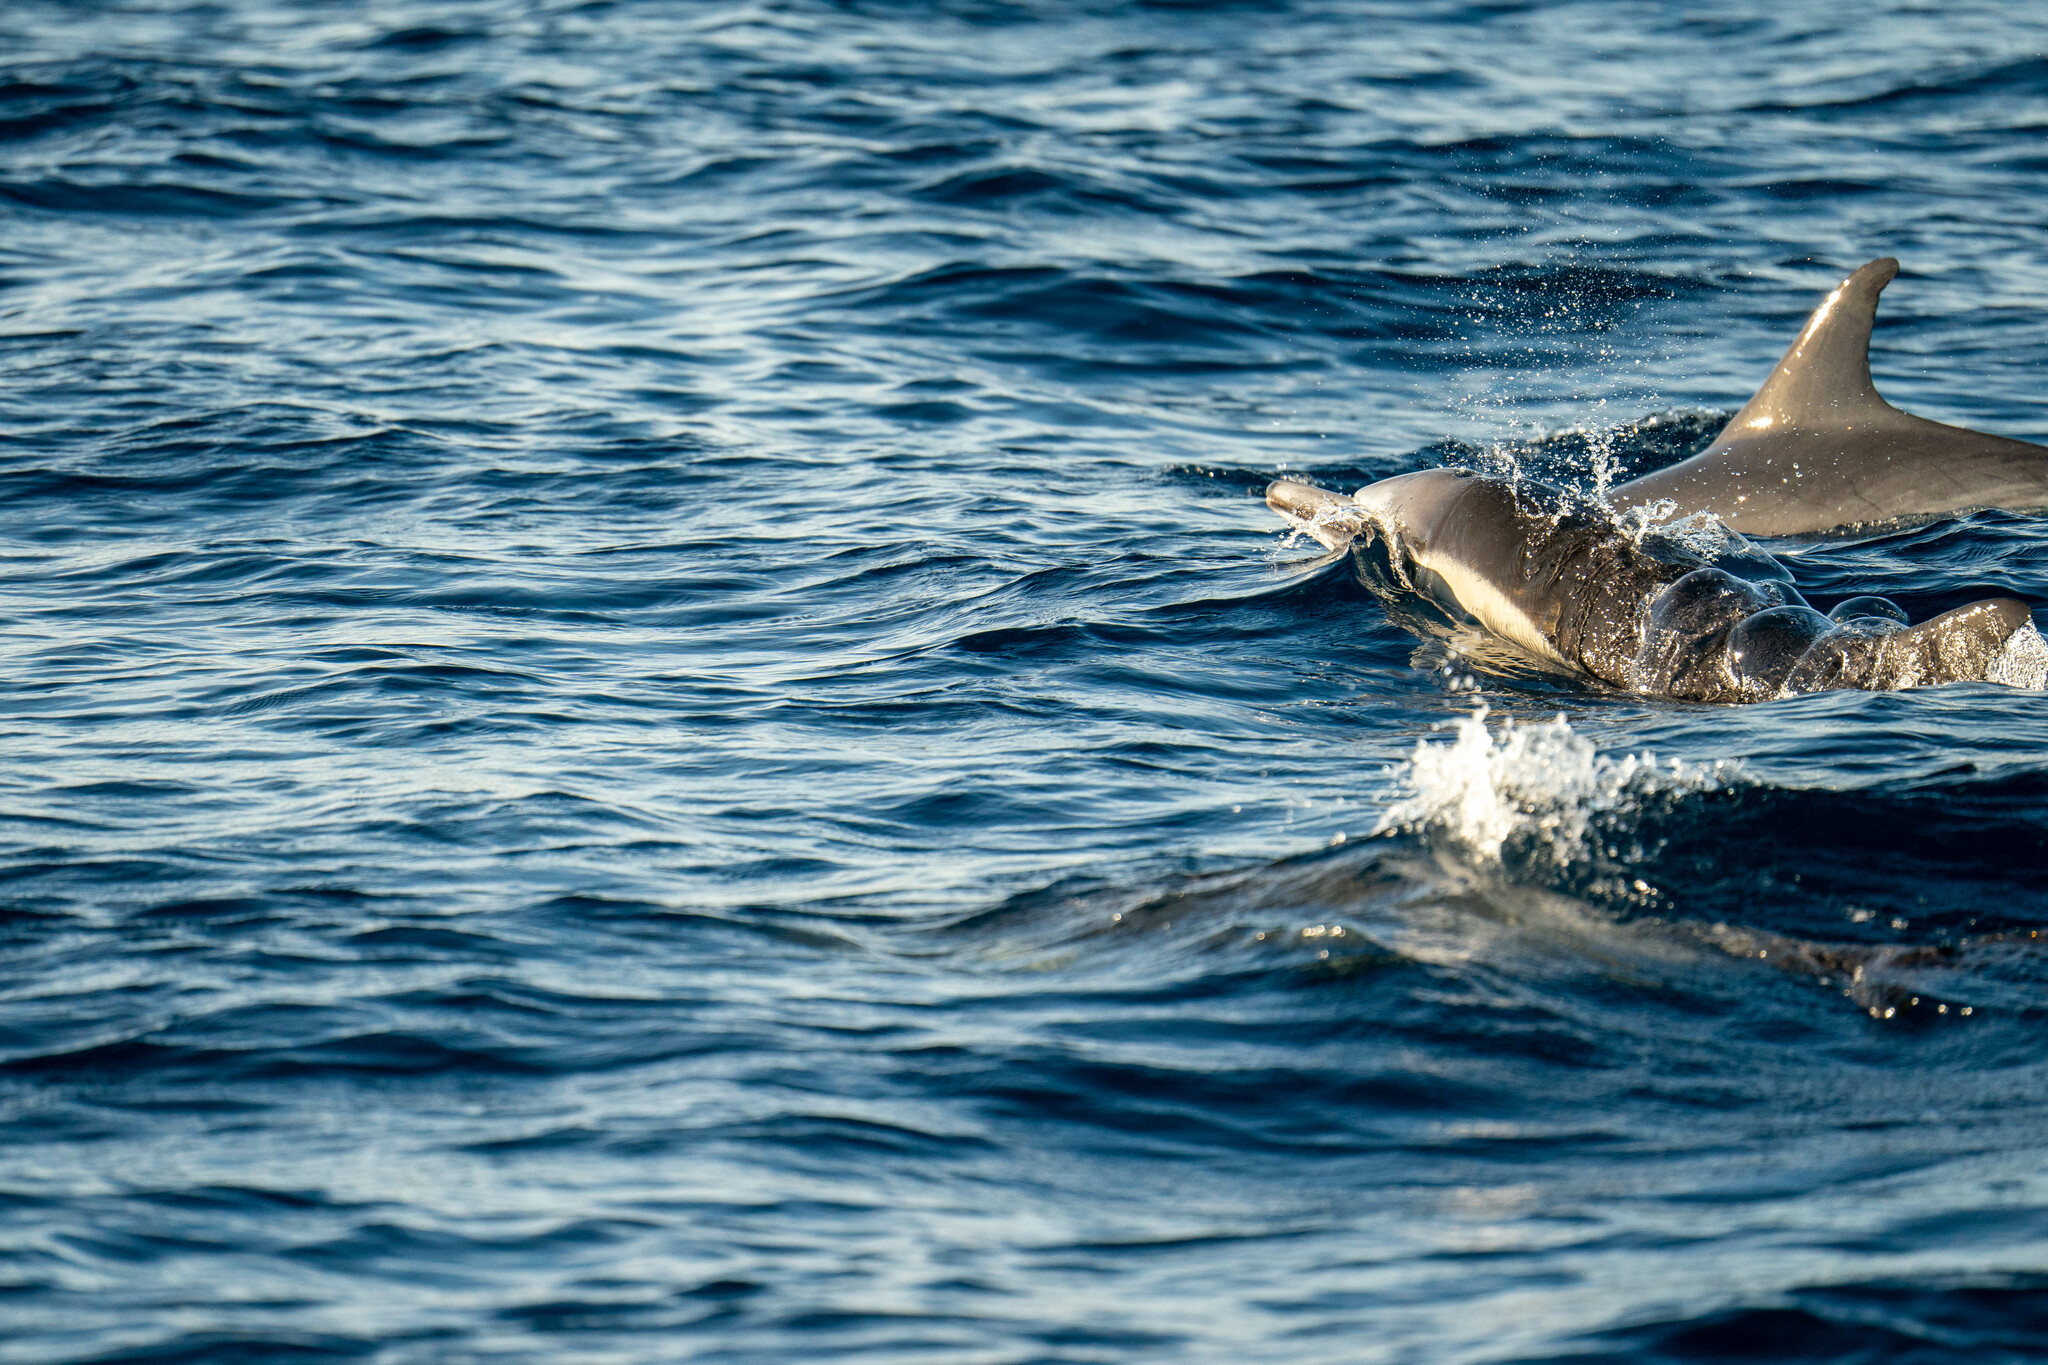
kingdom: Animalia
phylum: Chordata
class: Mammalia
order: Cetacea
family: Delphinidae
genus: Delphinus
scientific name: Delphinus delphis
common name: Common dolphin
